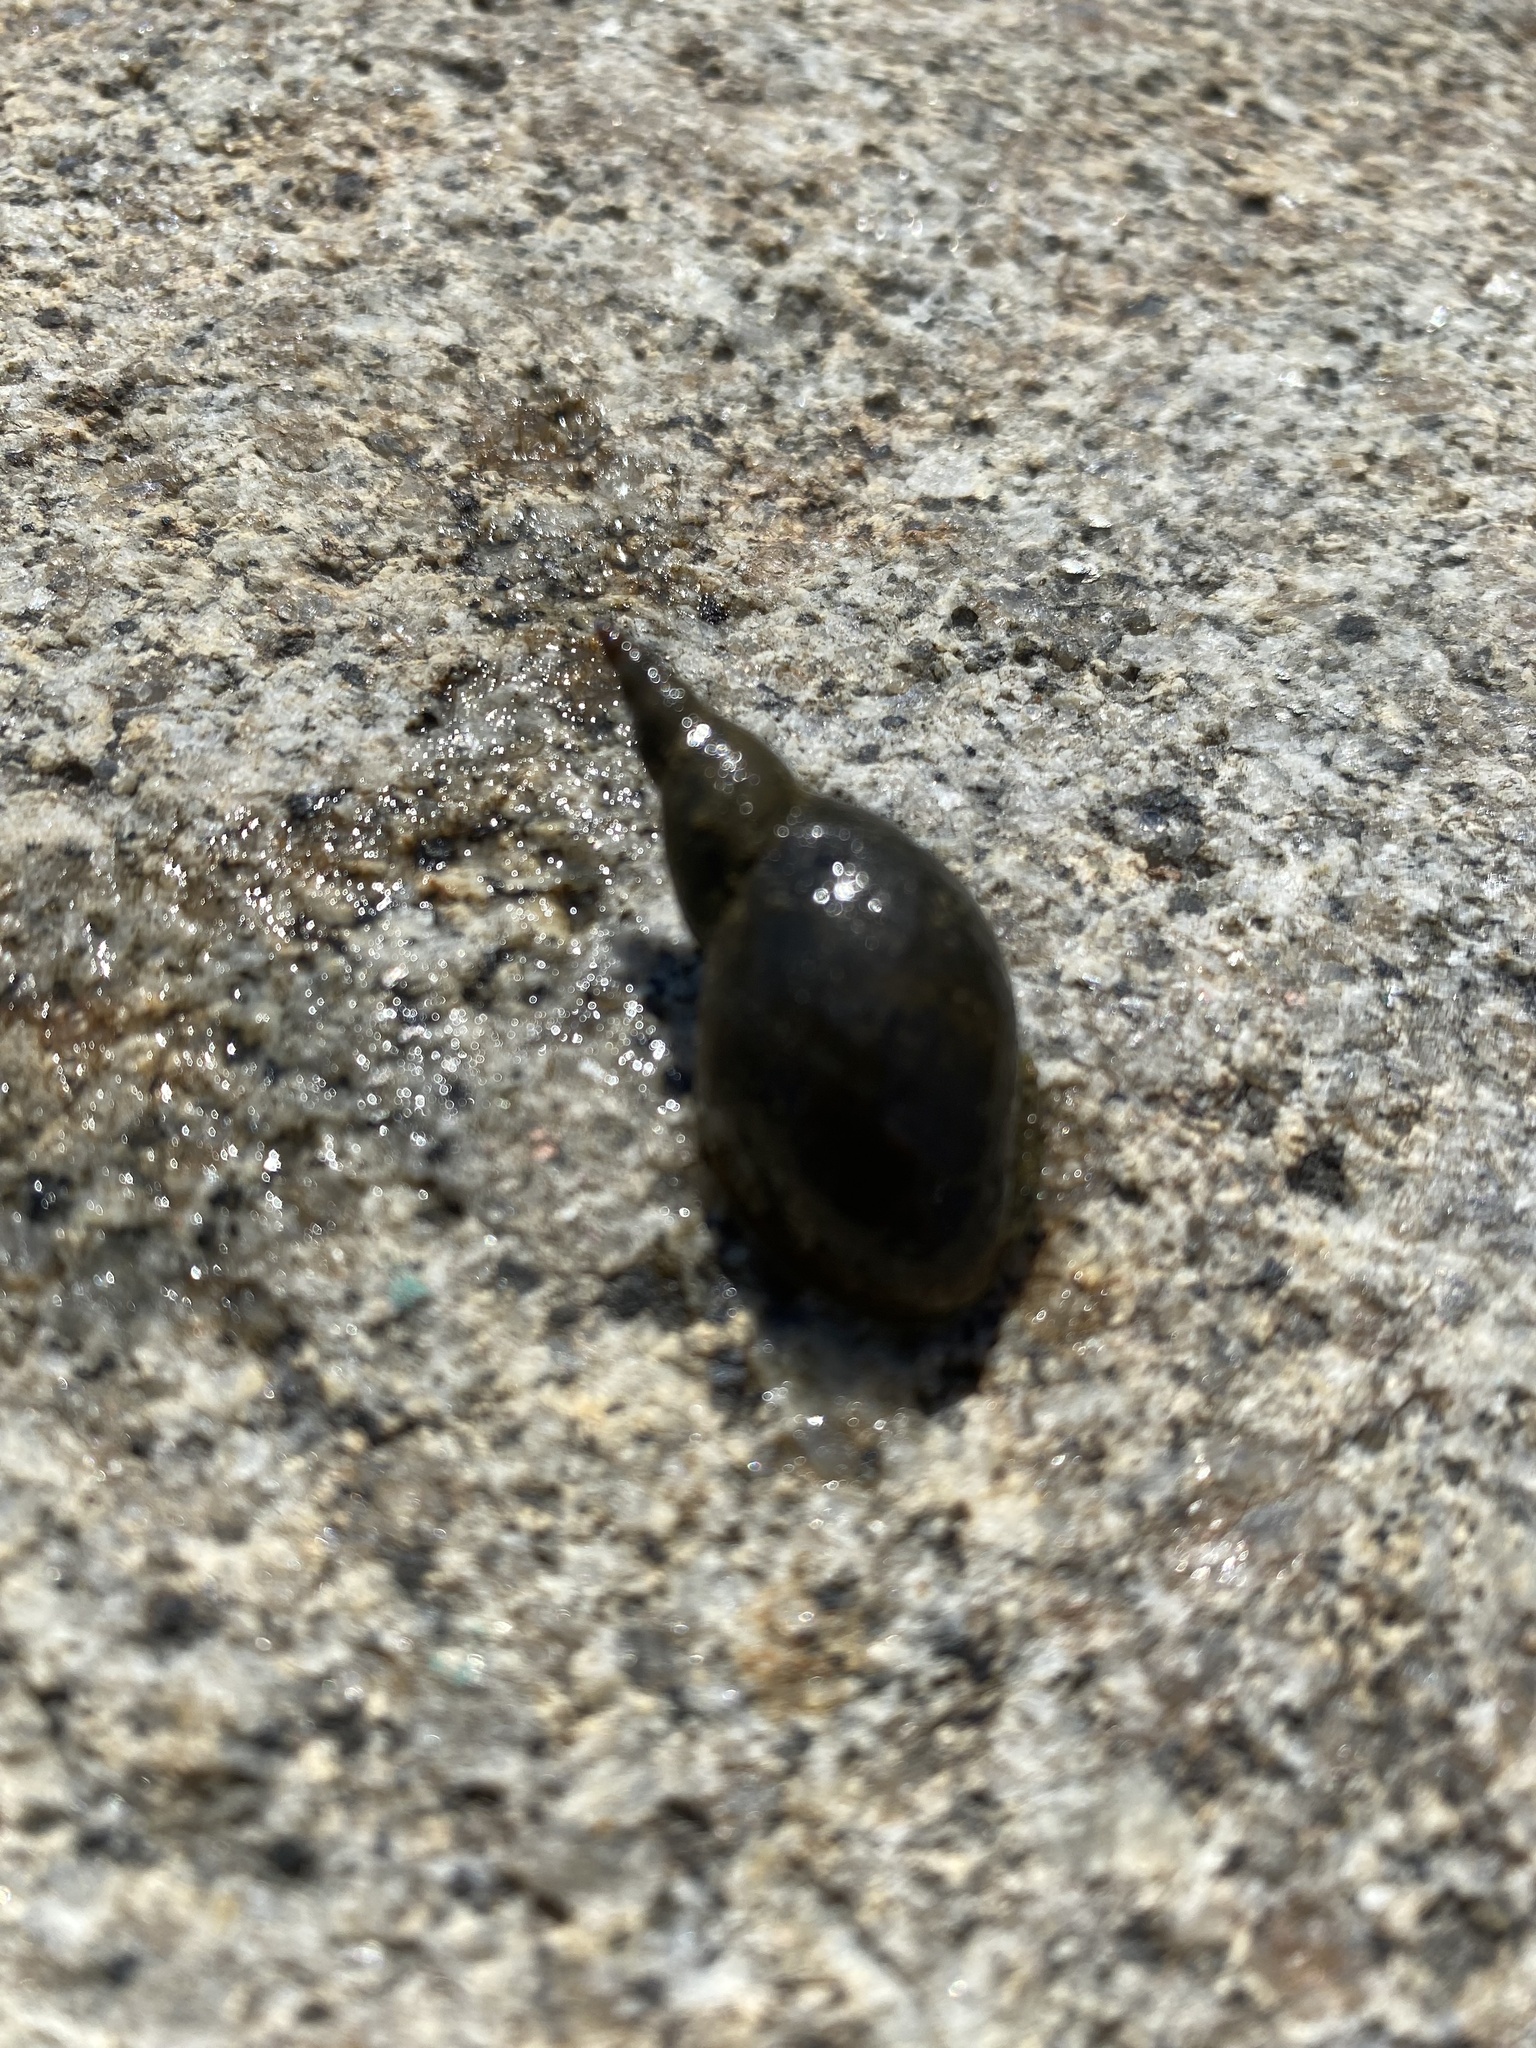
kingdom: Animalia
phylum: Mollusca
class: Gastropoda
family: Lymnaeidae
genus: Lymnaea
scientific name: Lymnaea stagnalis
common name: Great pond snail
